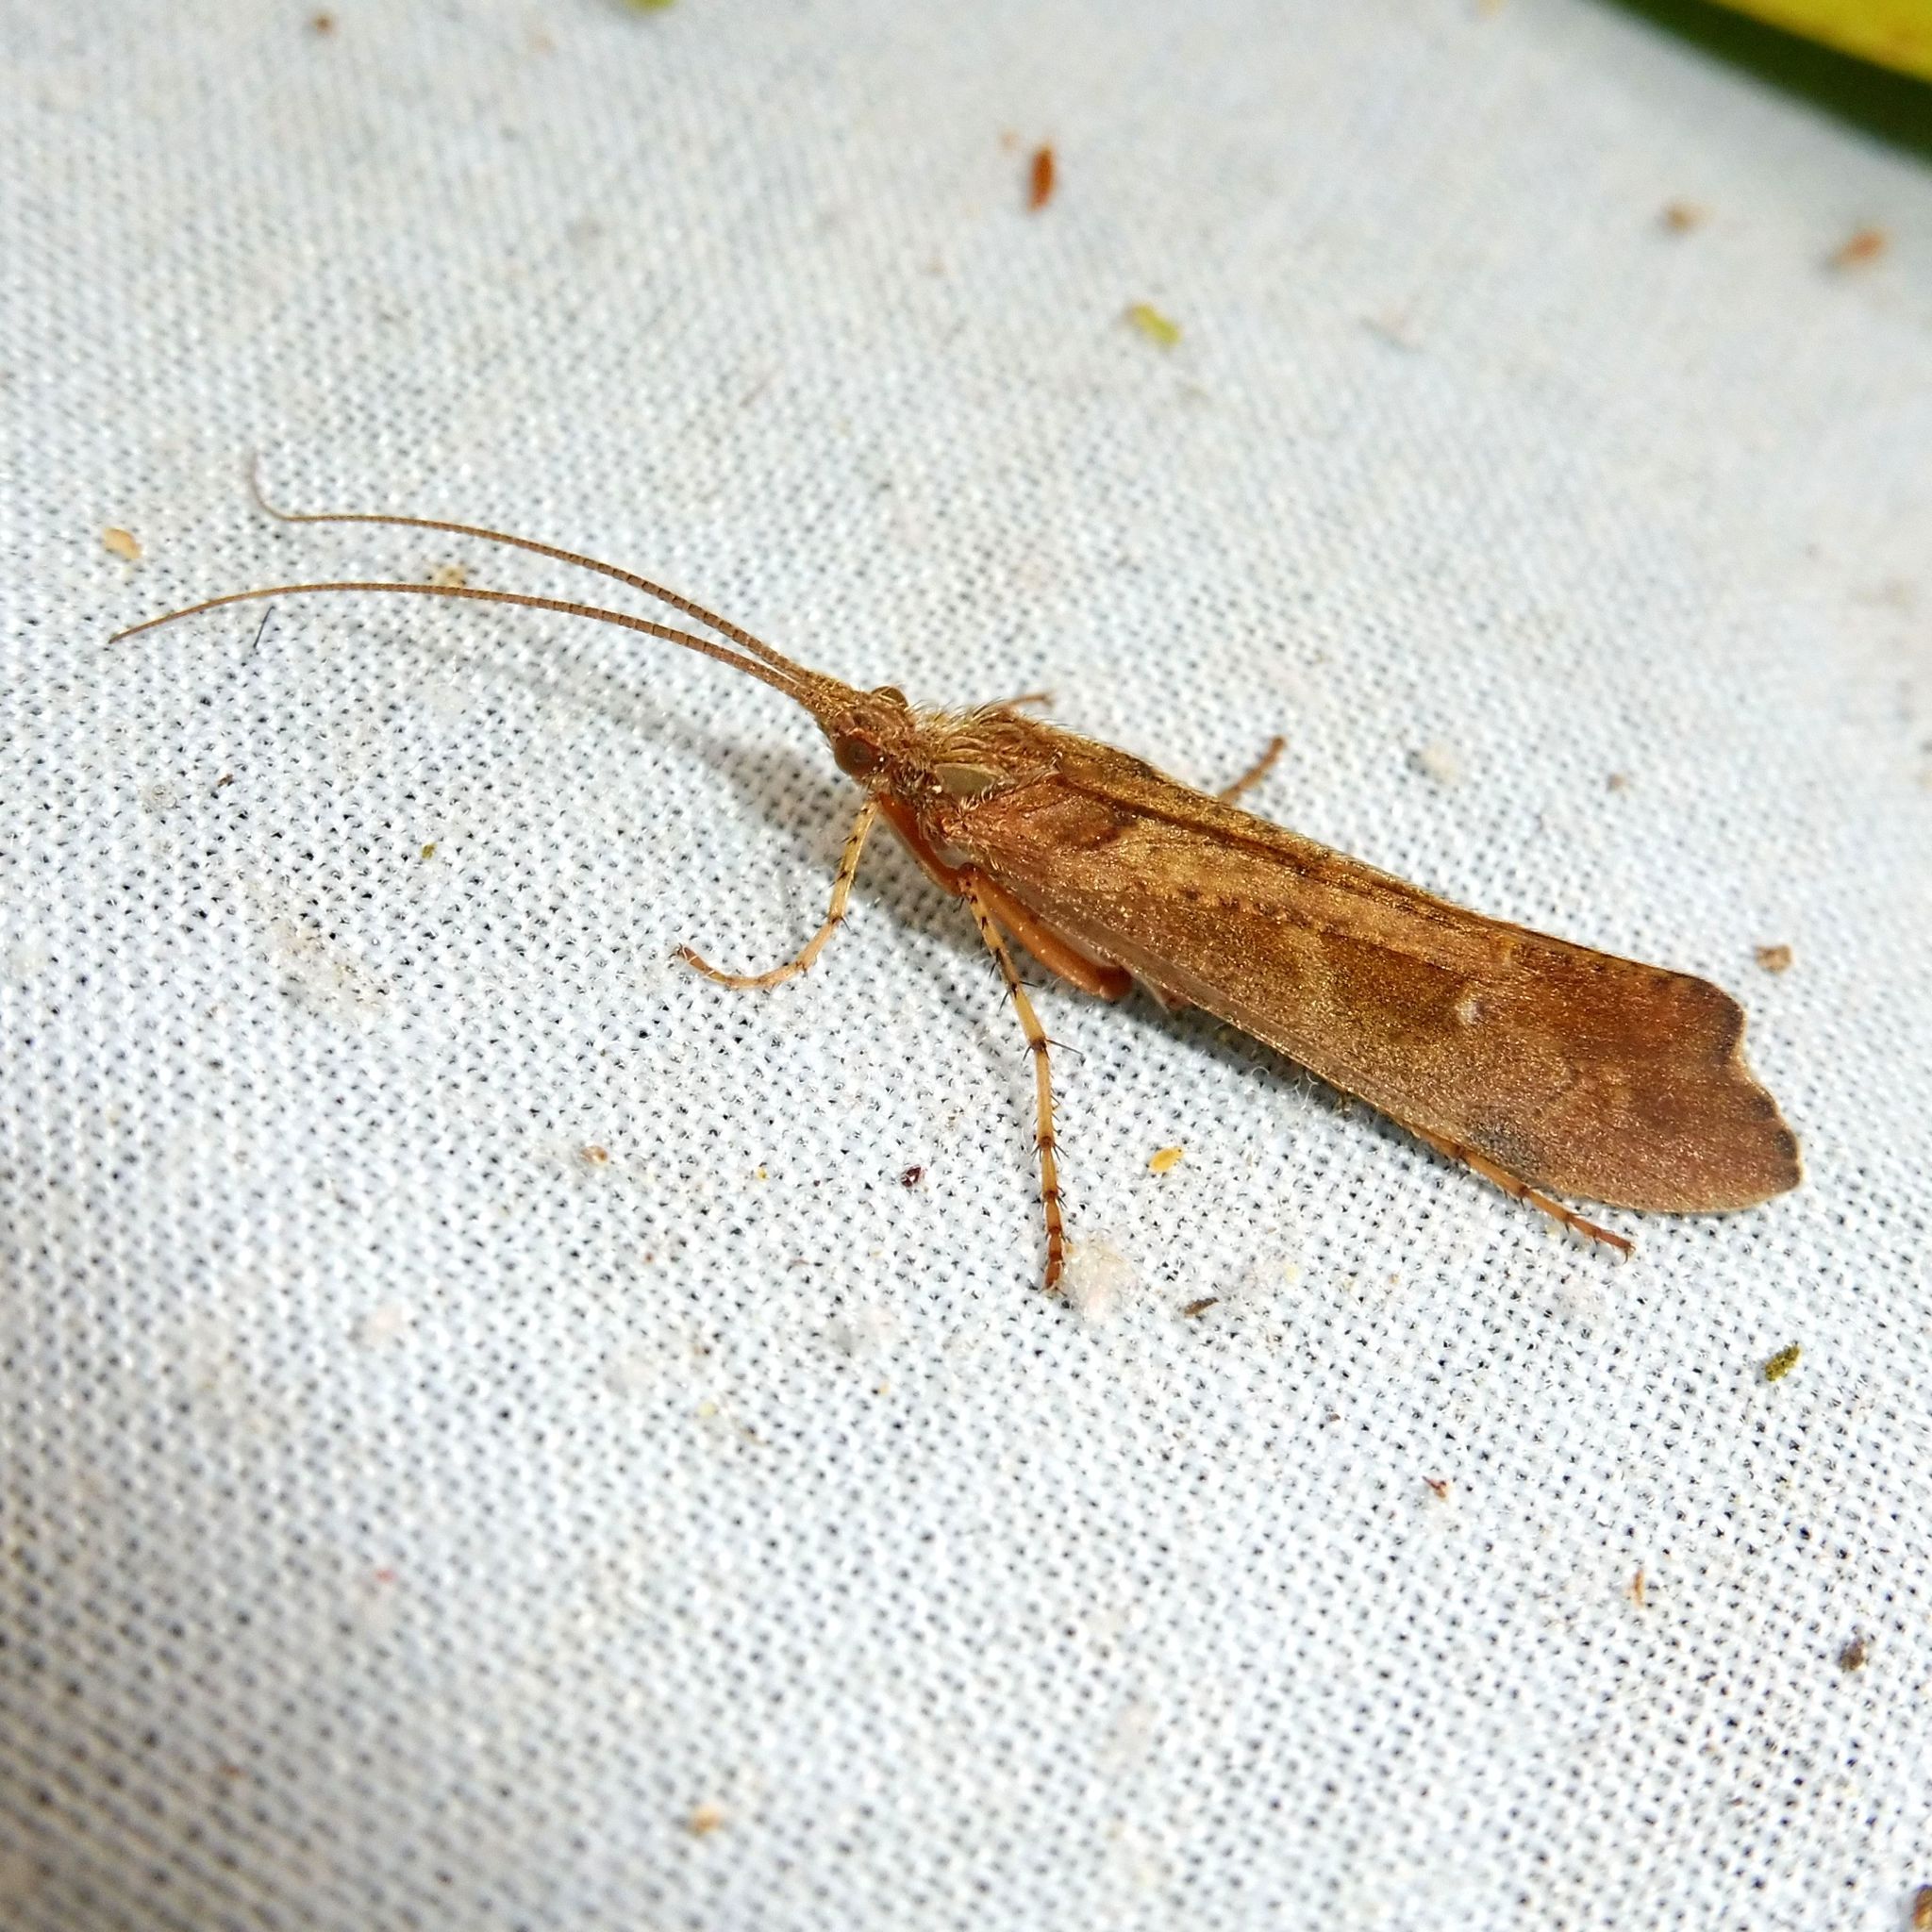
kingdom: Animalia
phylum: Arthropoda
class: Insecta
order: Trichoptera
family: Limnephilidae
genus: Glyphotaelius
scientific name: Glyphotaelius pellucidus
